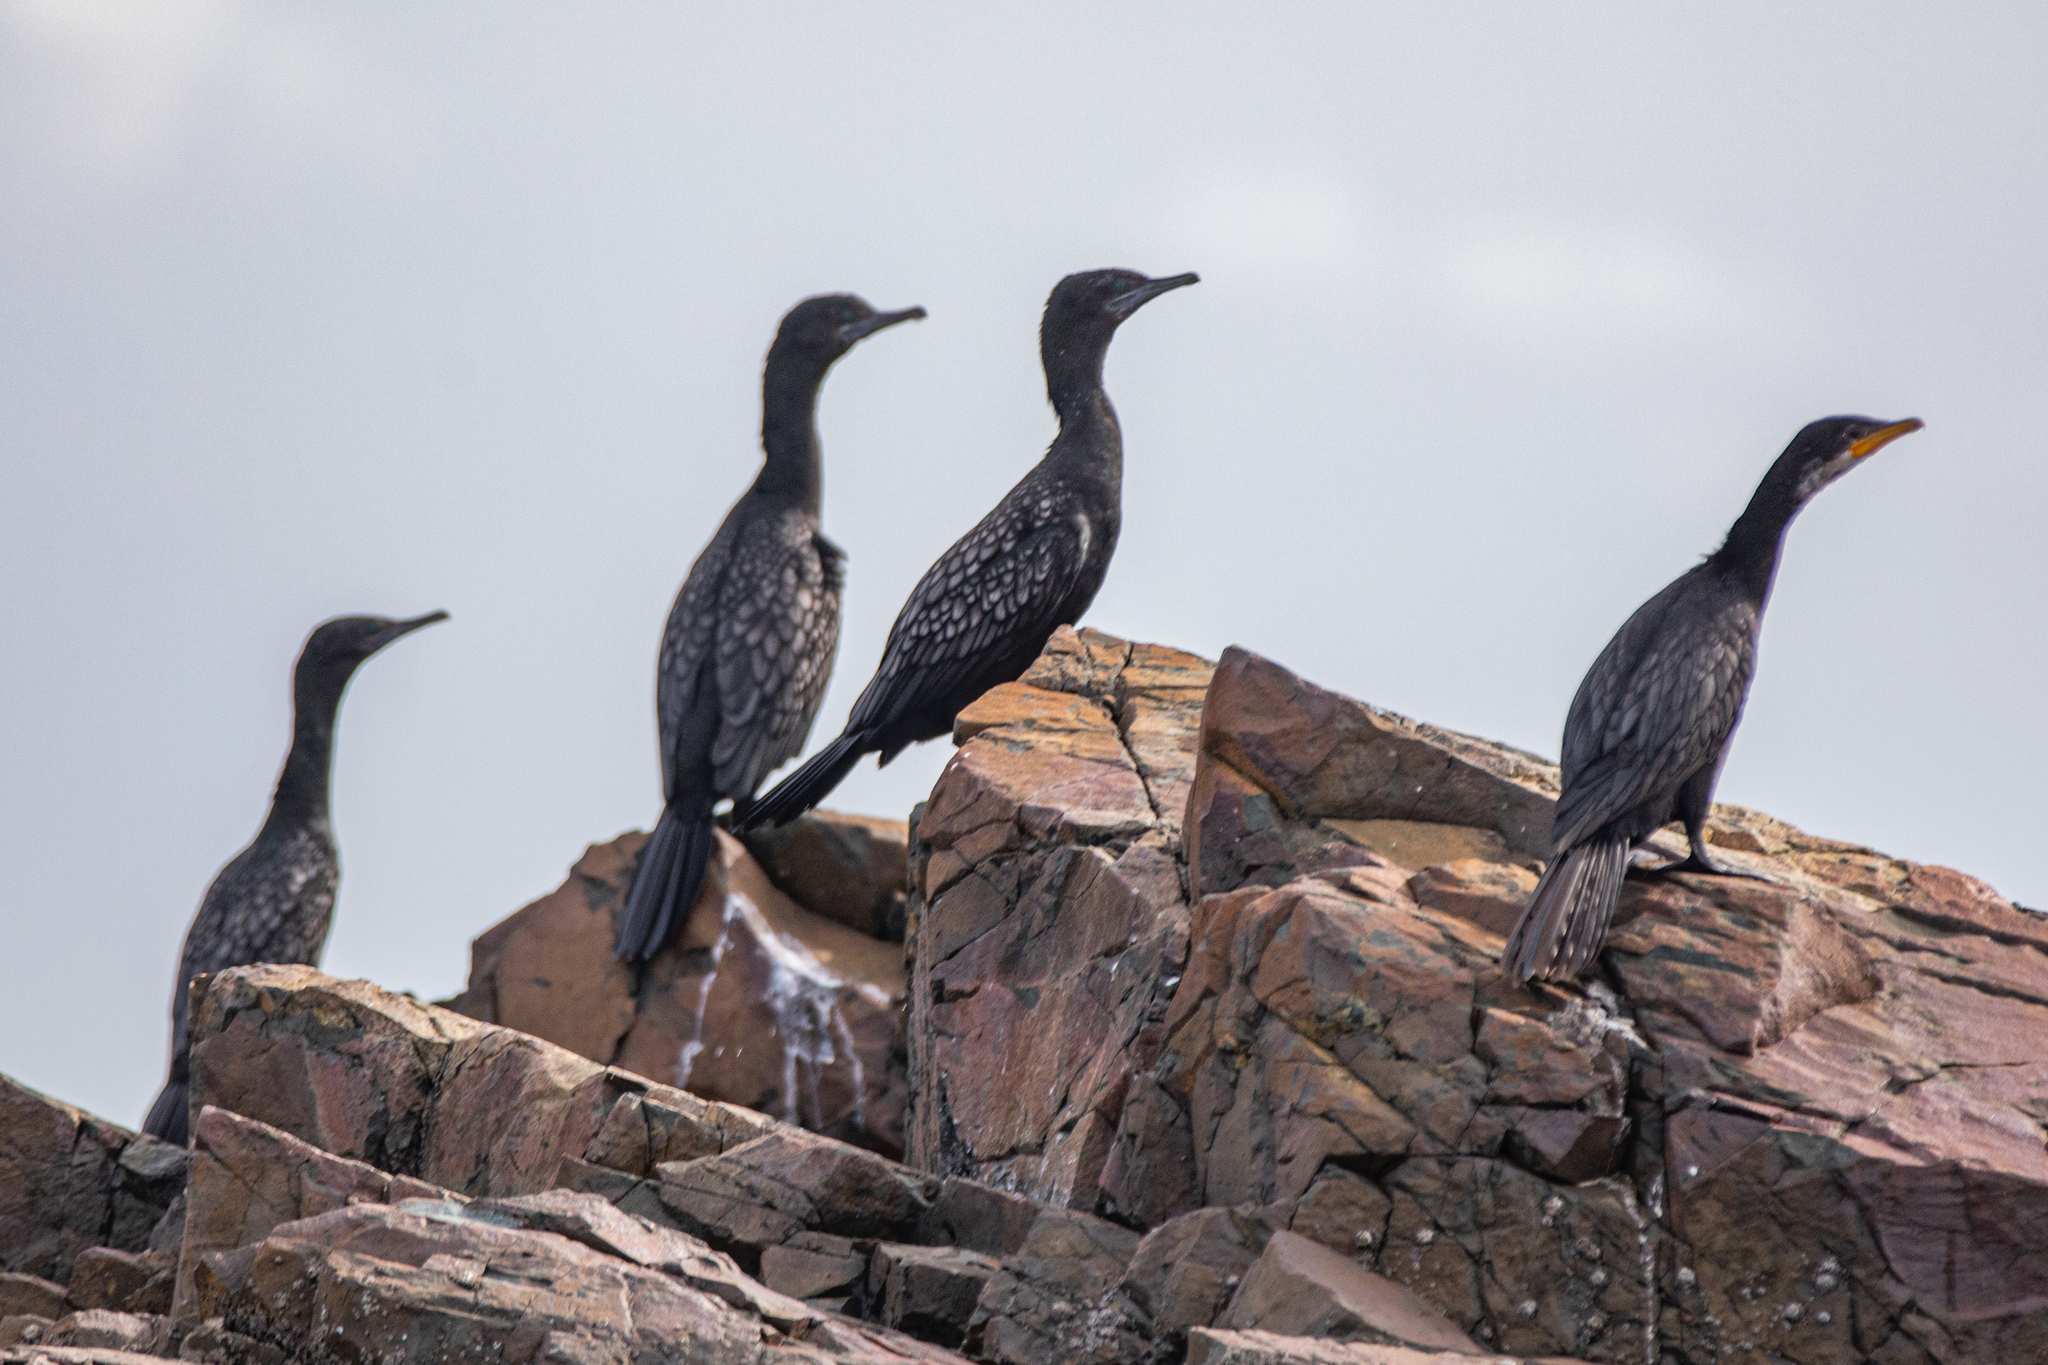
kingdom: Animalia
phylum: Chordata
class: Aves
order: Suliformes
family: Phalacrocoracidae
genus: Phalacrocorax
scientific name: Phalacrocorax sulcirostris
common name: Little black cormorant
